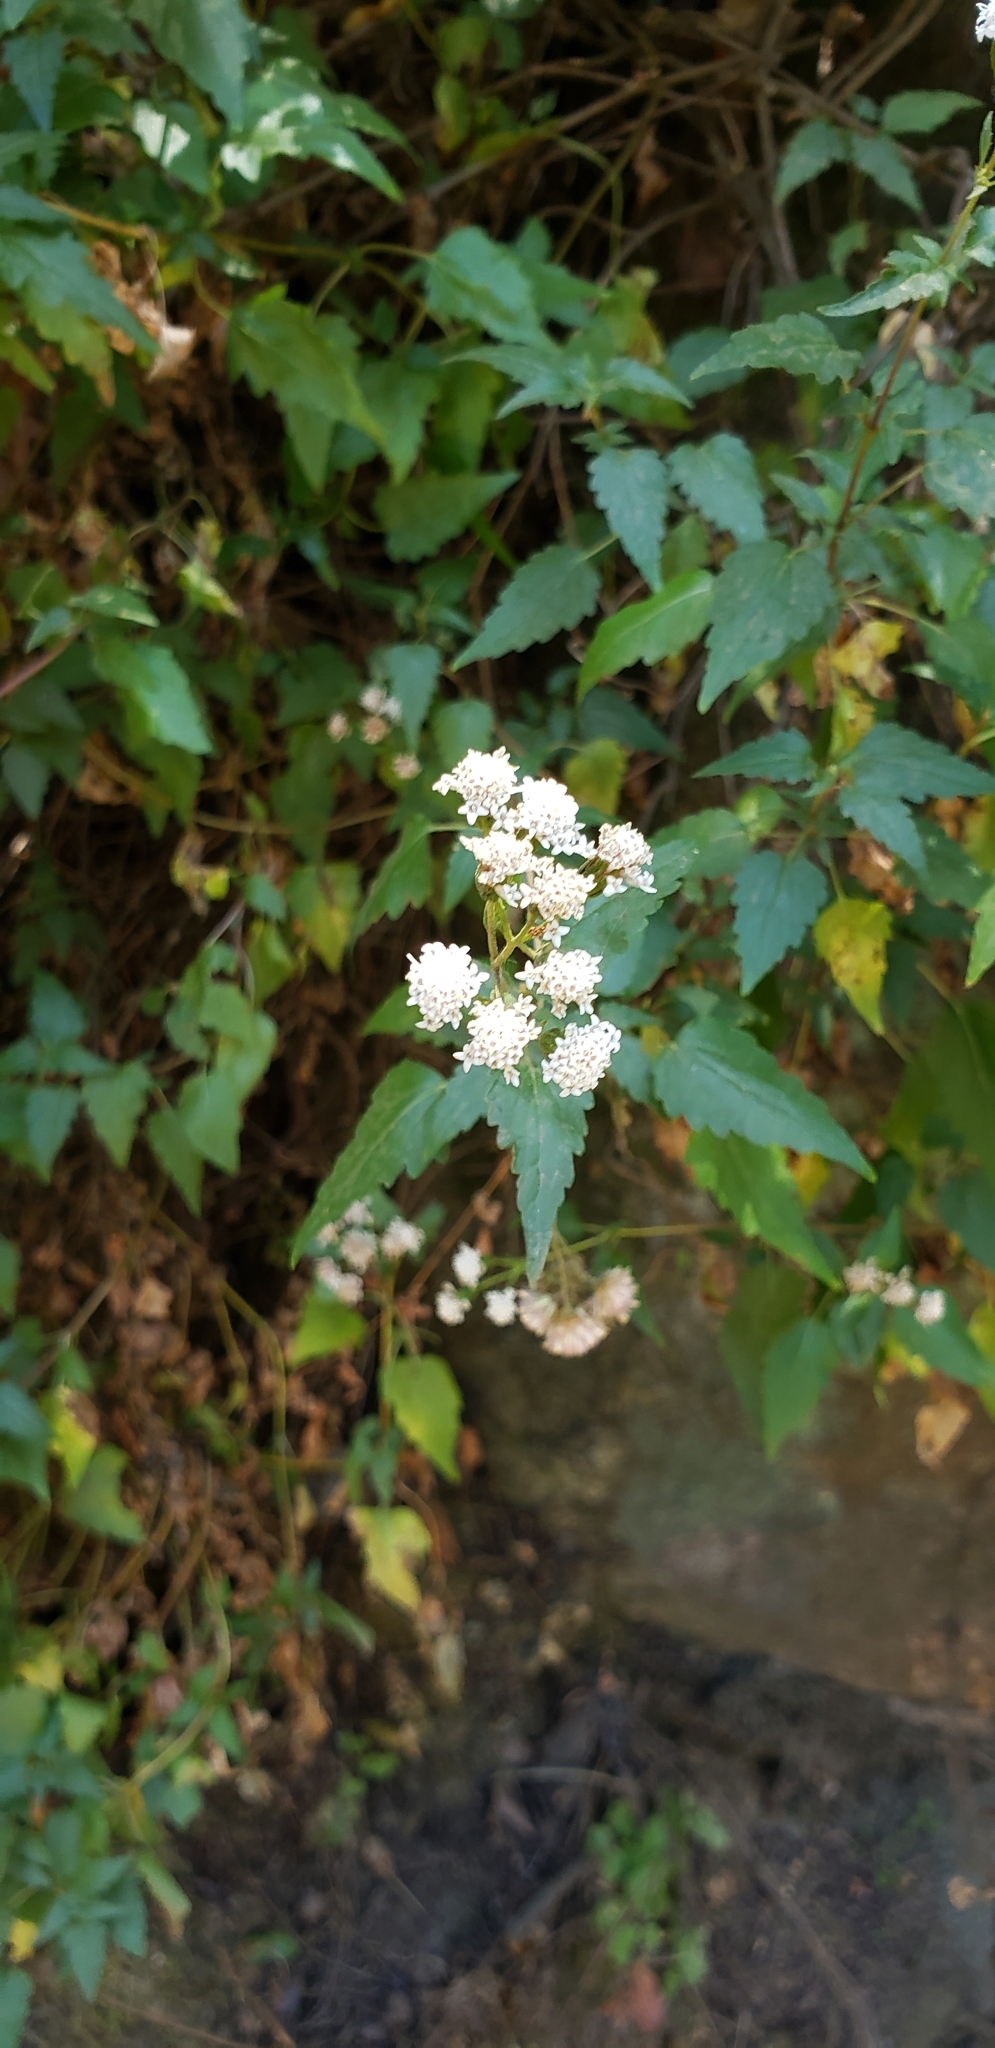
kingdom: Plantae
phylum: Tracheophyta
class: Magnoliopsida
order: Asterales
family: Asteraceae
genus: Ageratina
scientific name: Ageratina glechonophylla
